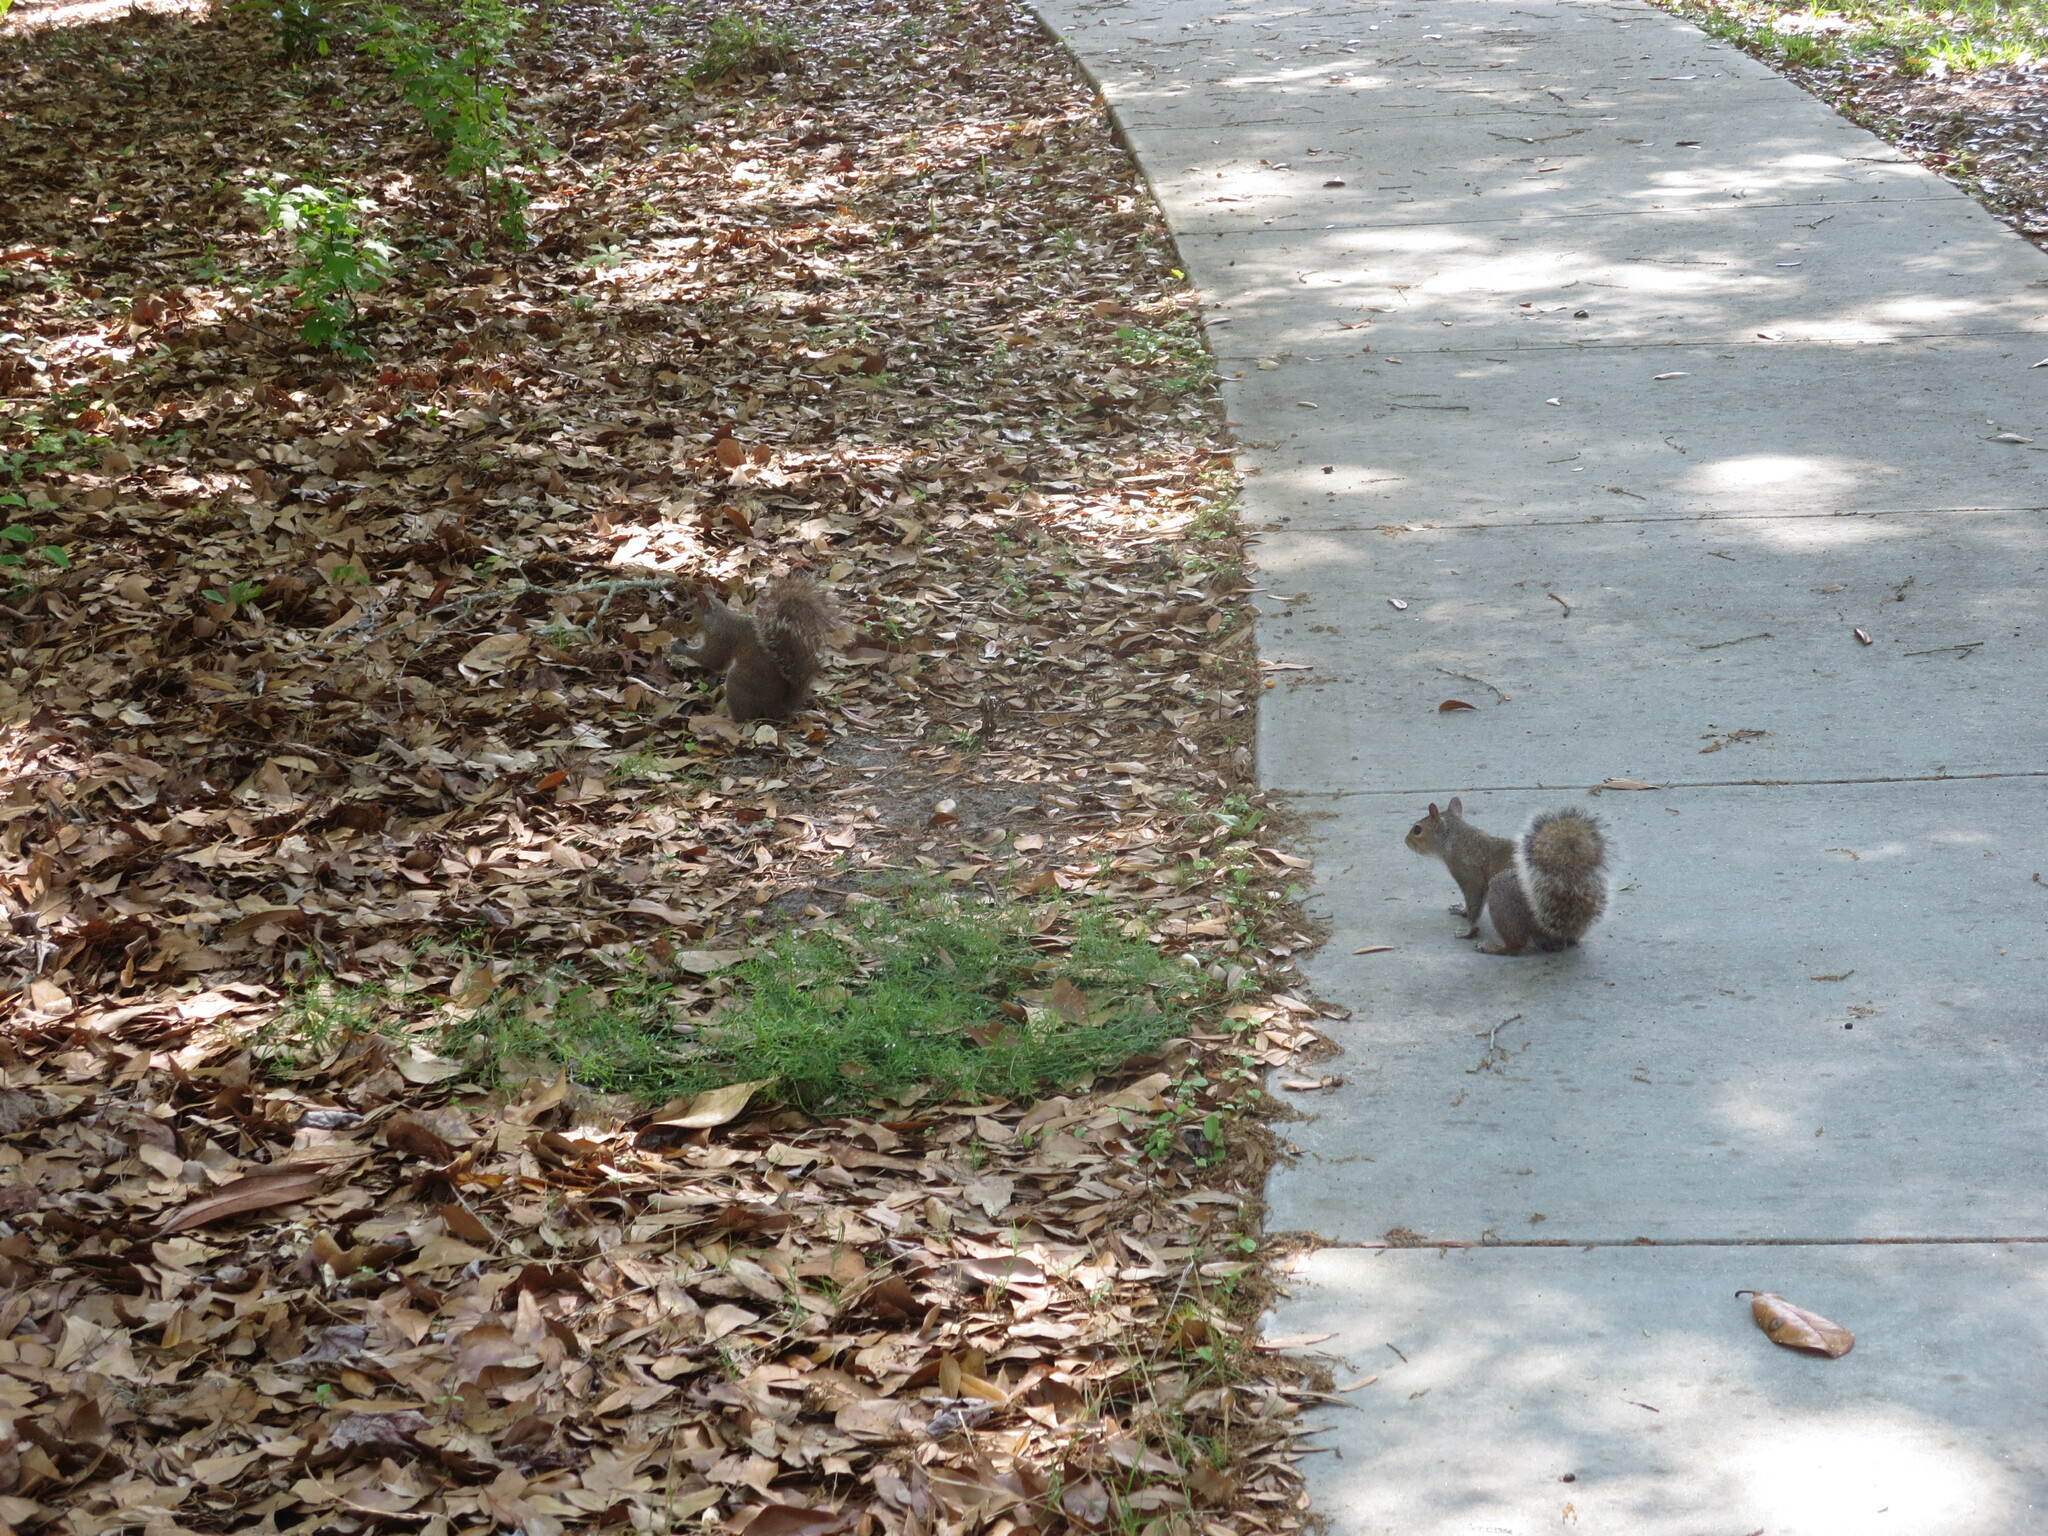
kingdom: Animalia
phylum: Chordata
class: Mammalia
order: Rodentia
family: Sciuridae
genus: Sciurus
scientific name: Sciurus carolinensis
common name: Eastern gray squirrel
